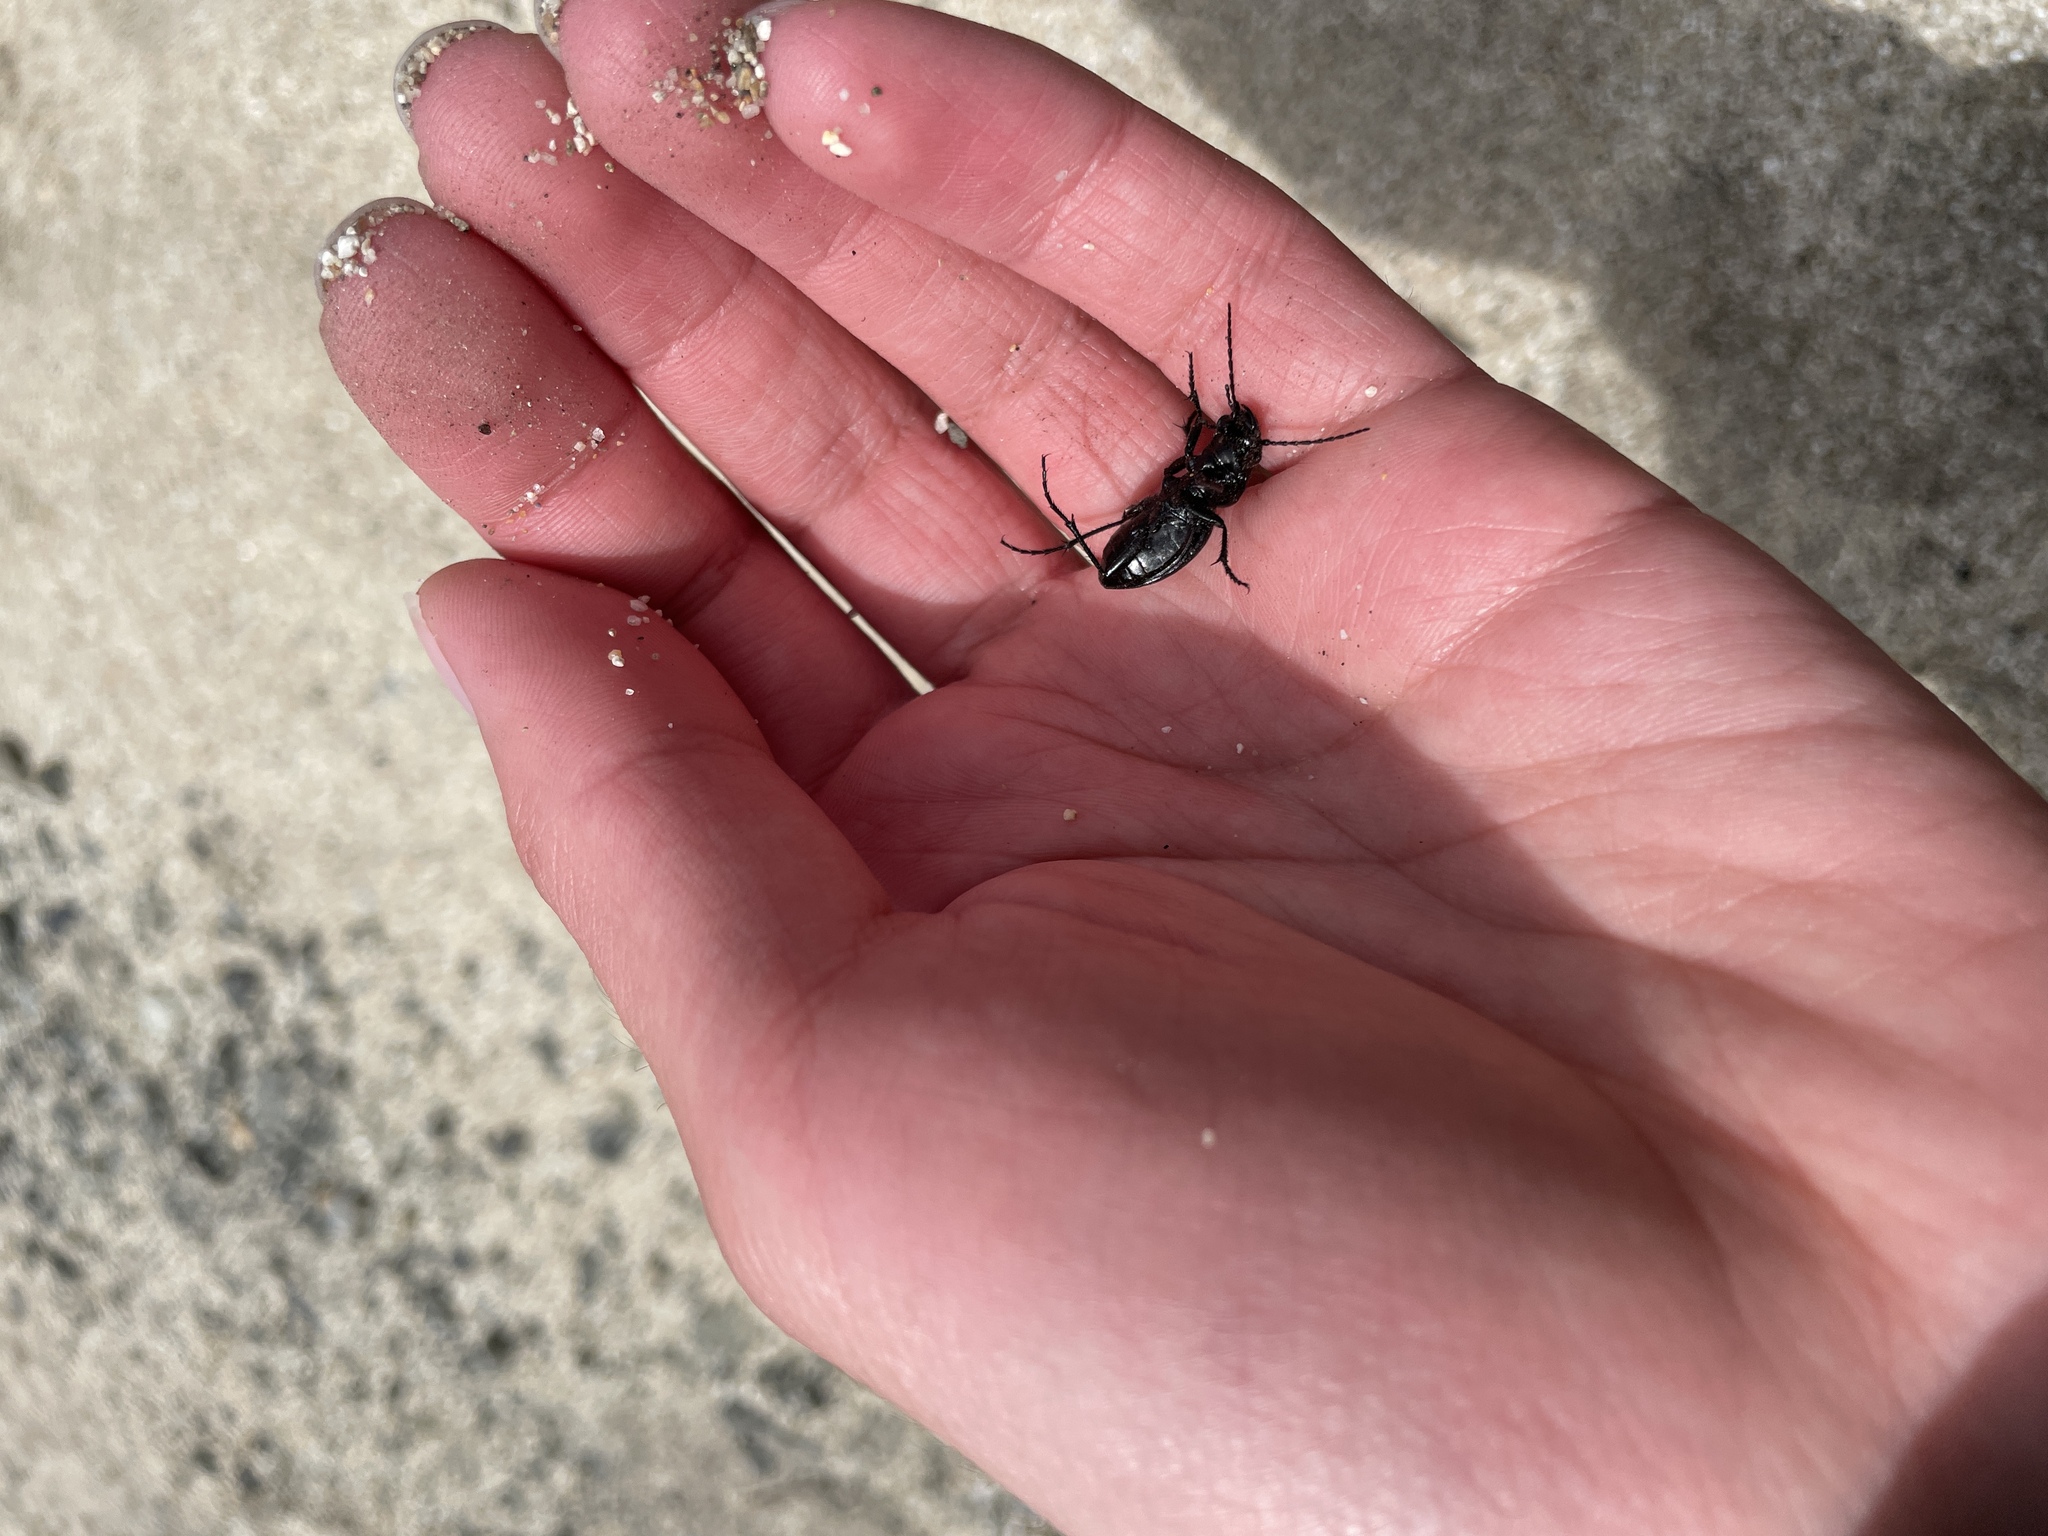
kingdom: Animalia
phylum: Arthropoda
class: Insecta
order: Coleoptera
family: Carabidae
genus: Omus
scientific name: Omus californicus
